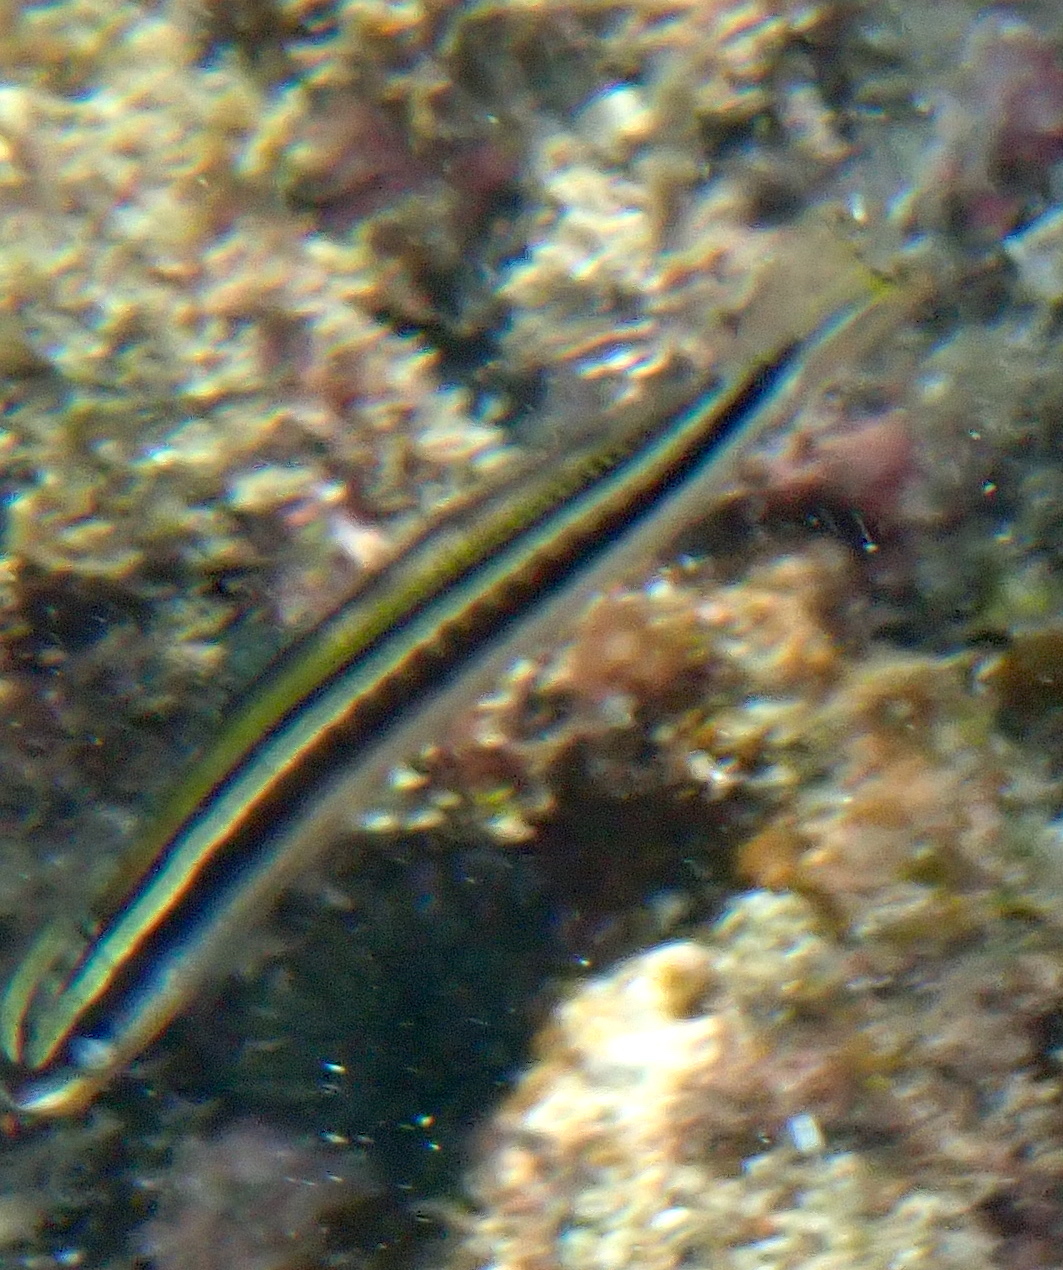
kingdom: Animalia
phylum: Chordata
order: Perciformes
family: Blenniidae
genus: Plagiotremus
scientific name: Plagiotremus goslinei
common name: Biting blenny
